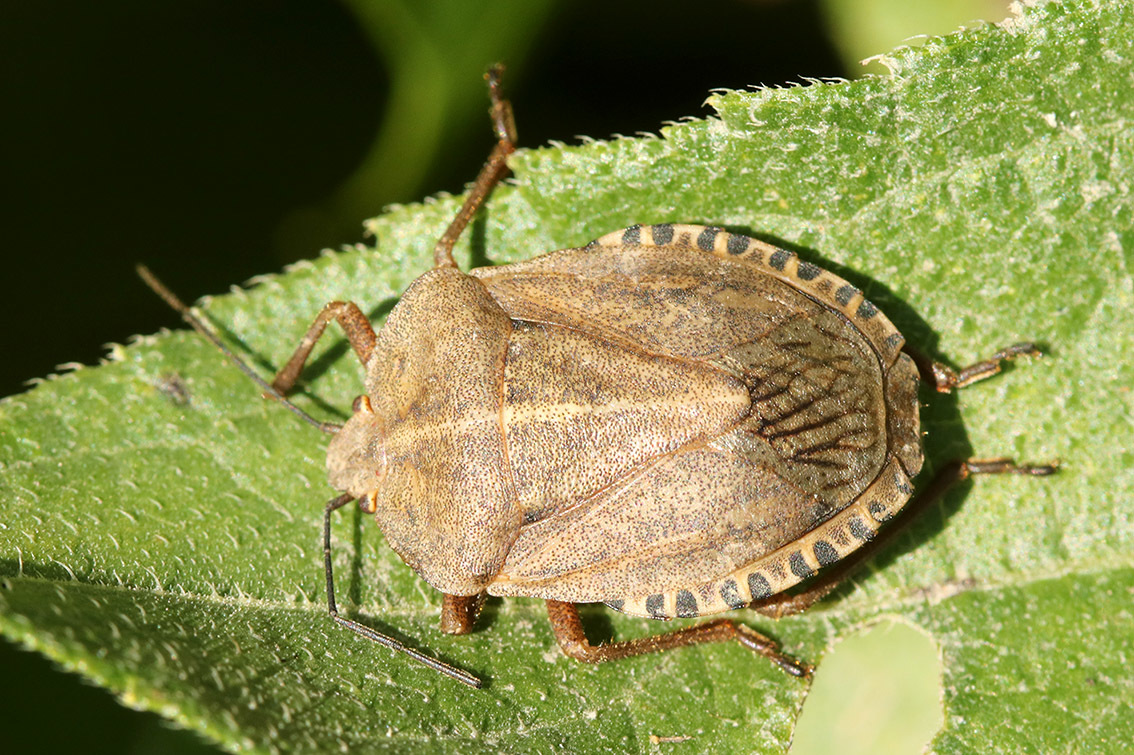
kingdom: Animalia
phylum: Arthropoda
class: Insecta
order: Hemiptera
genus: Anhanga
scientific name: Anhanga modesta
